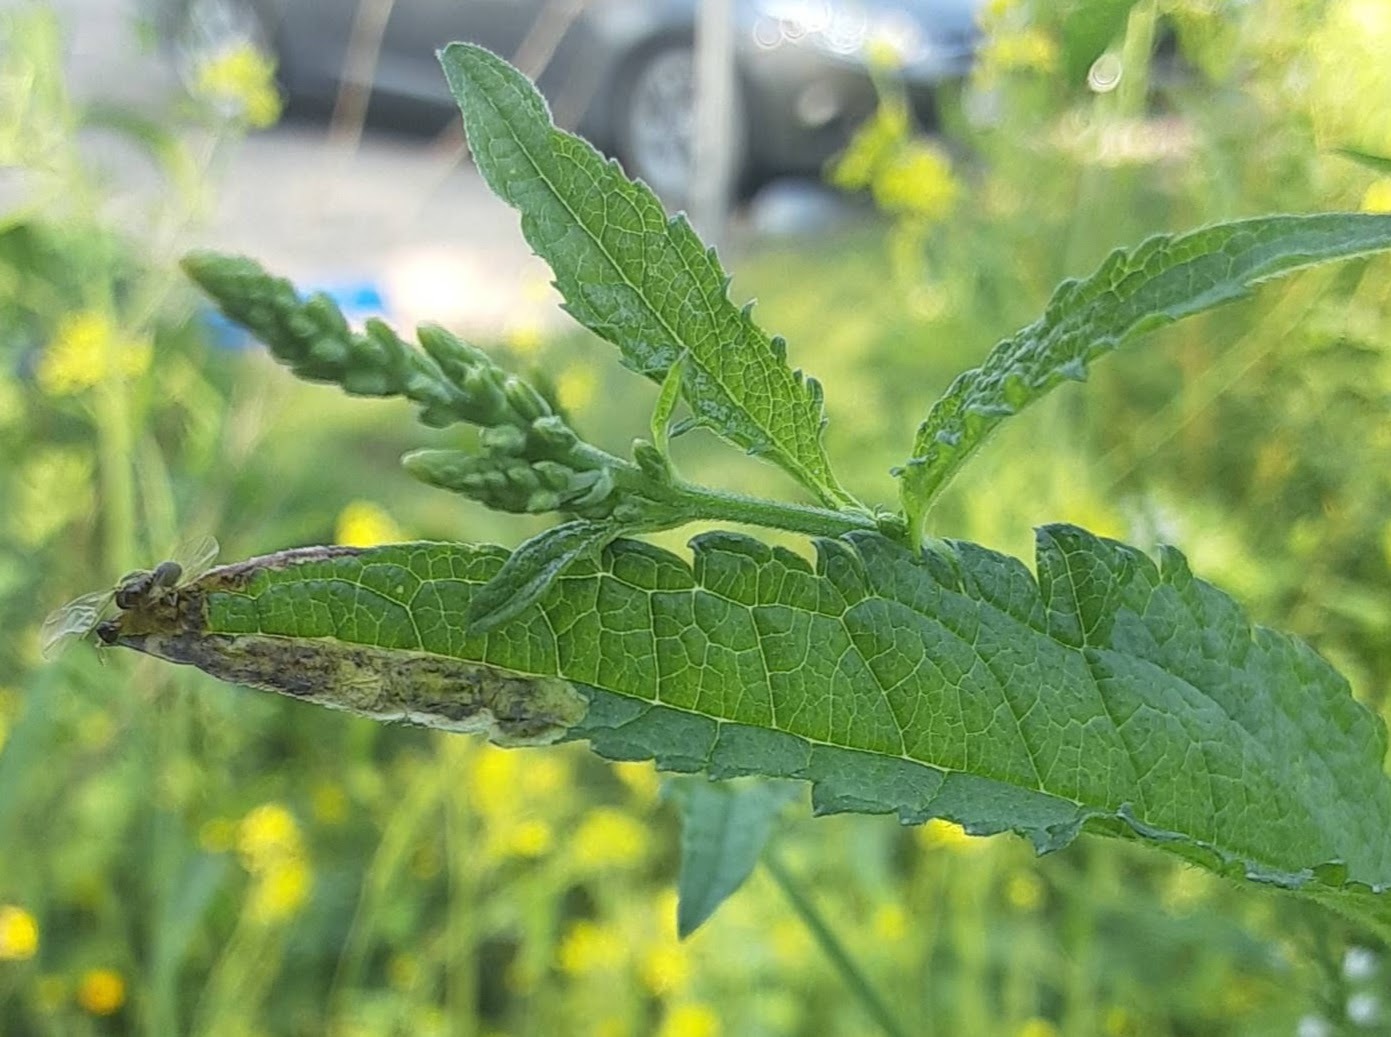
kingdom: Animalia
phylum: Arthropoda
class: Insecta
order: Diptera
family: Agromyzidae
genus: Calycomyza
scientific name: Calycomyza verbenae
